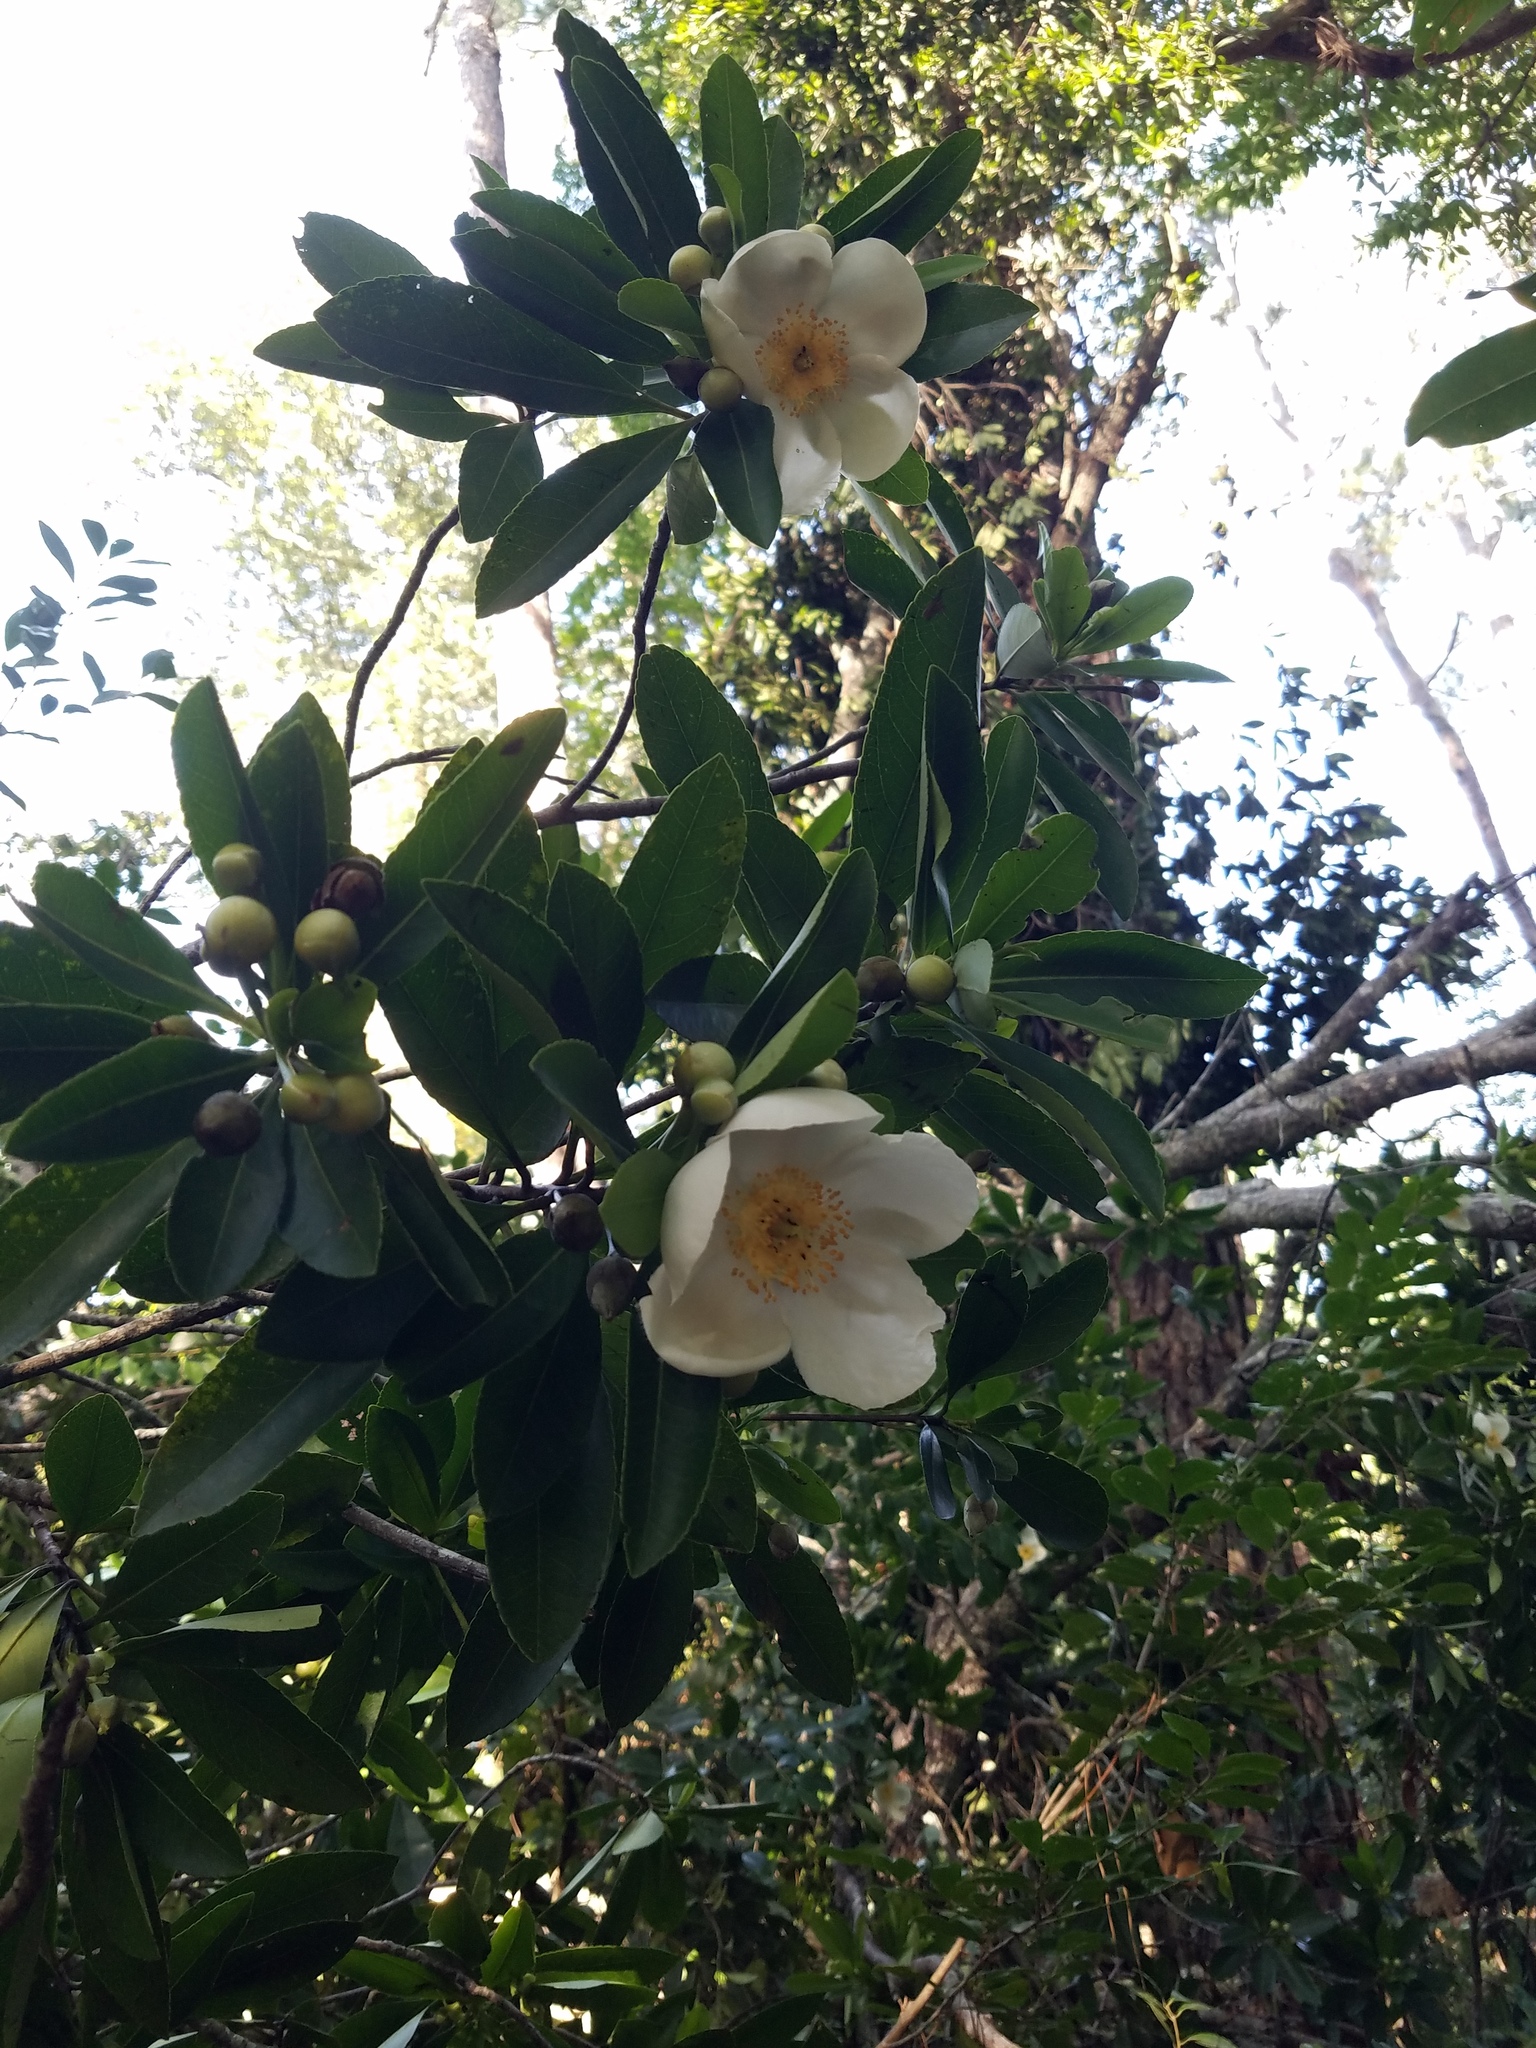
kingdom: Plantae
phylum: Tracheophyta
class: Magnoliopsida
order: Ericales
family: Theaceae
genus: Gordonia
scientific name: Gordonia lasianthus
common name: Loblolly bay
